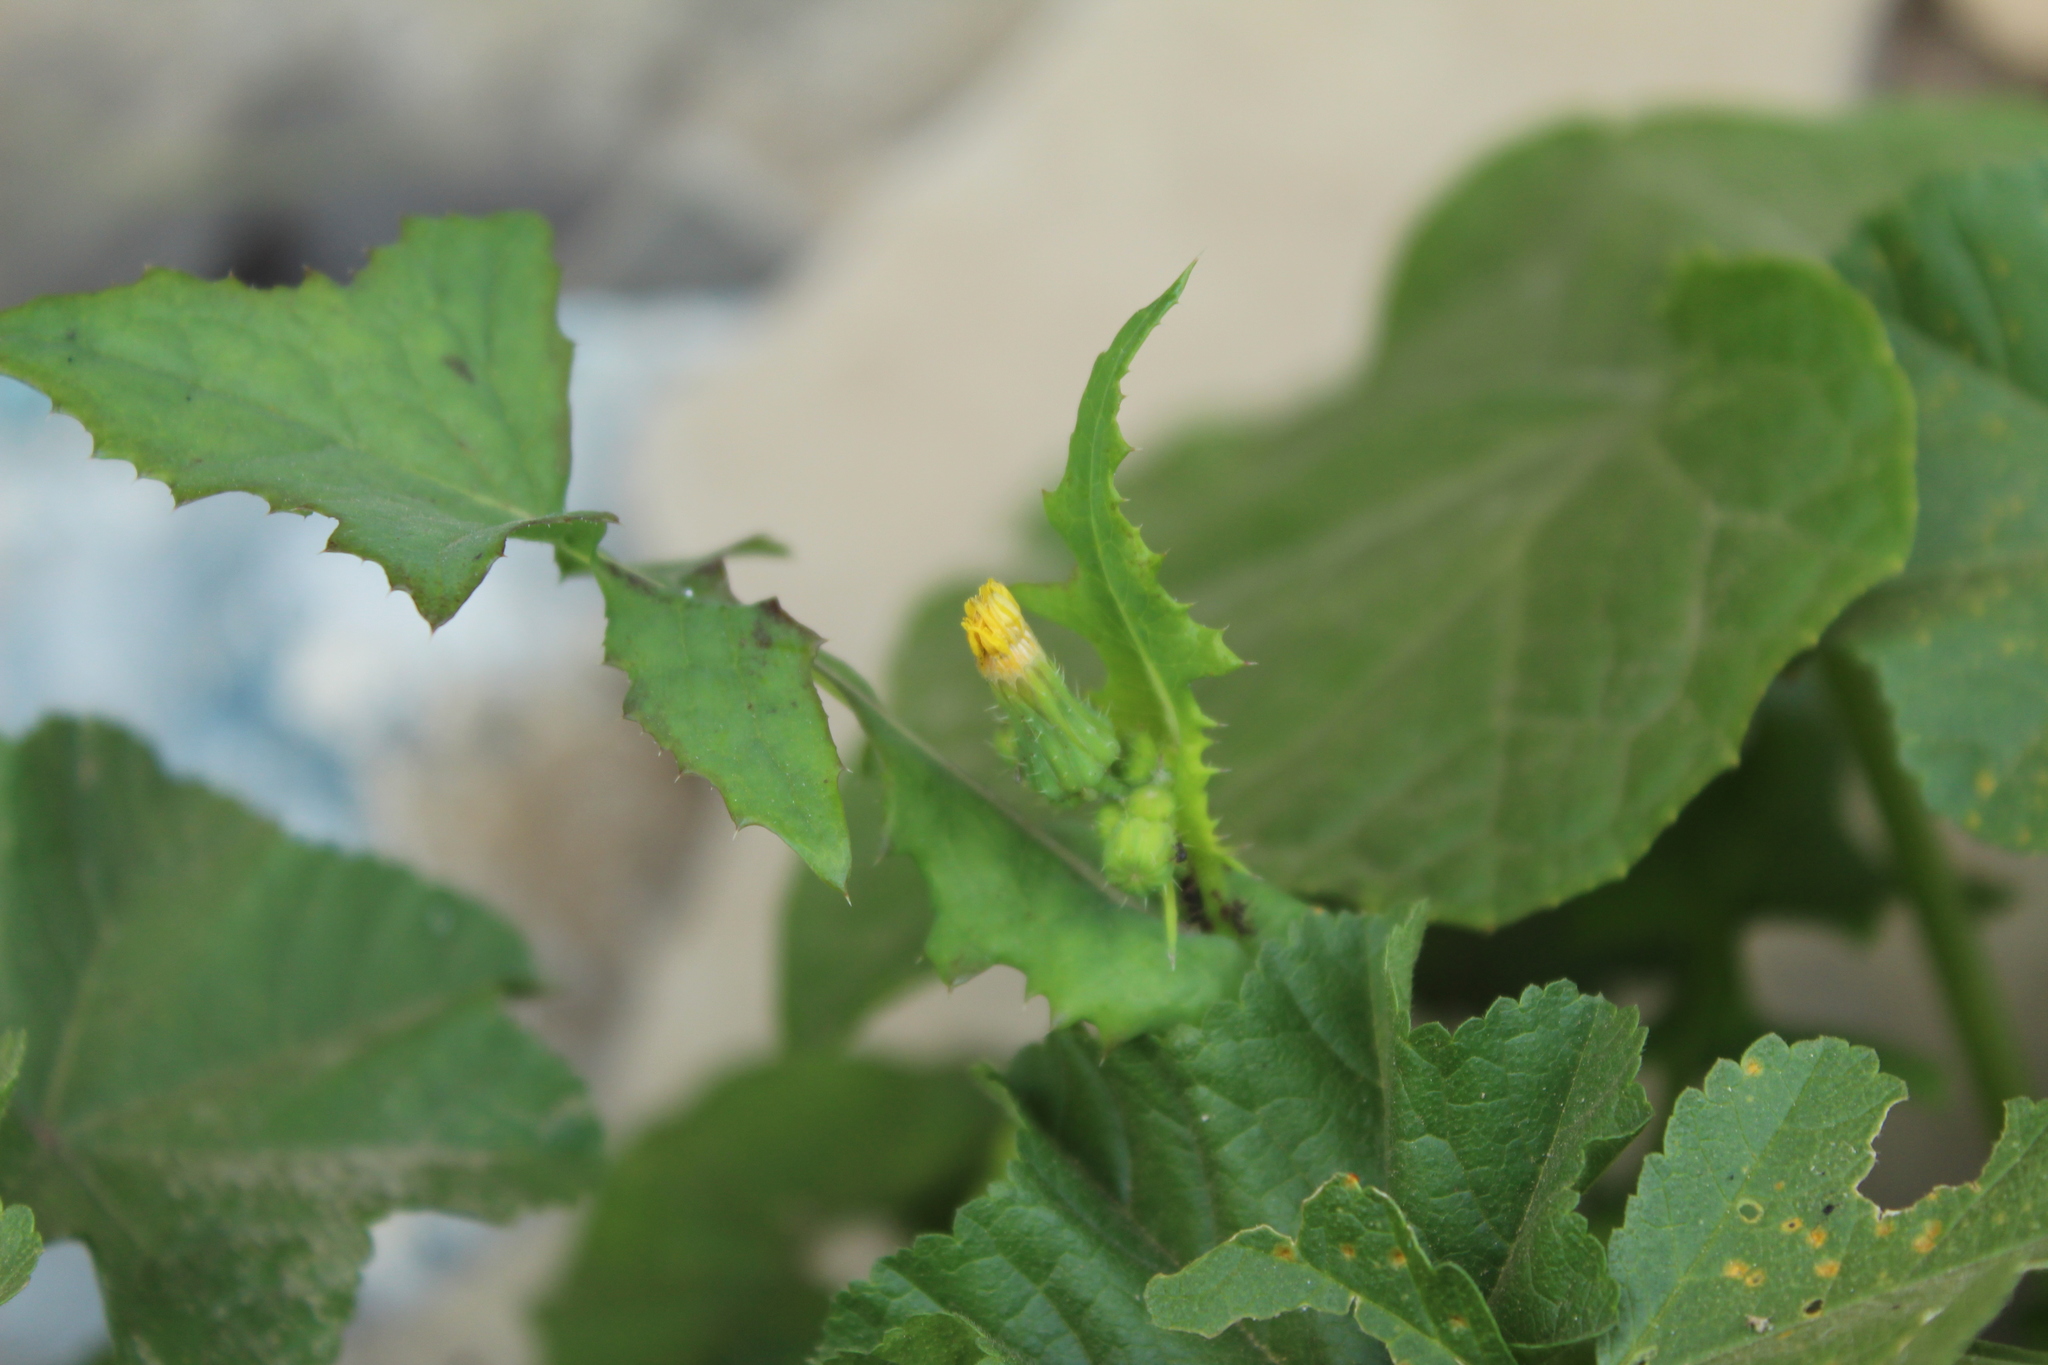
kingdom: Plantae
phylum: Tracheophyta
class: Magnoliopsida
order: Asterales
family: Asteraceae
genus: Sonchus
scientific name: Sonchus oleraceus
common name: Common sowthistle
